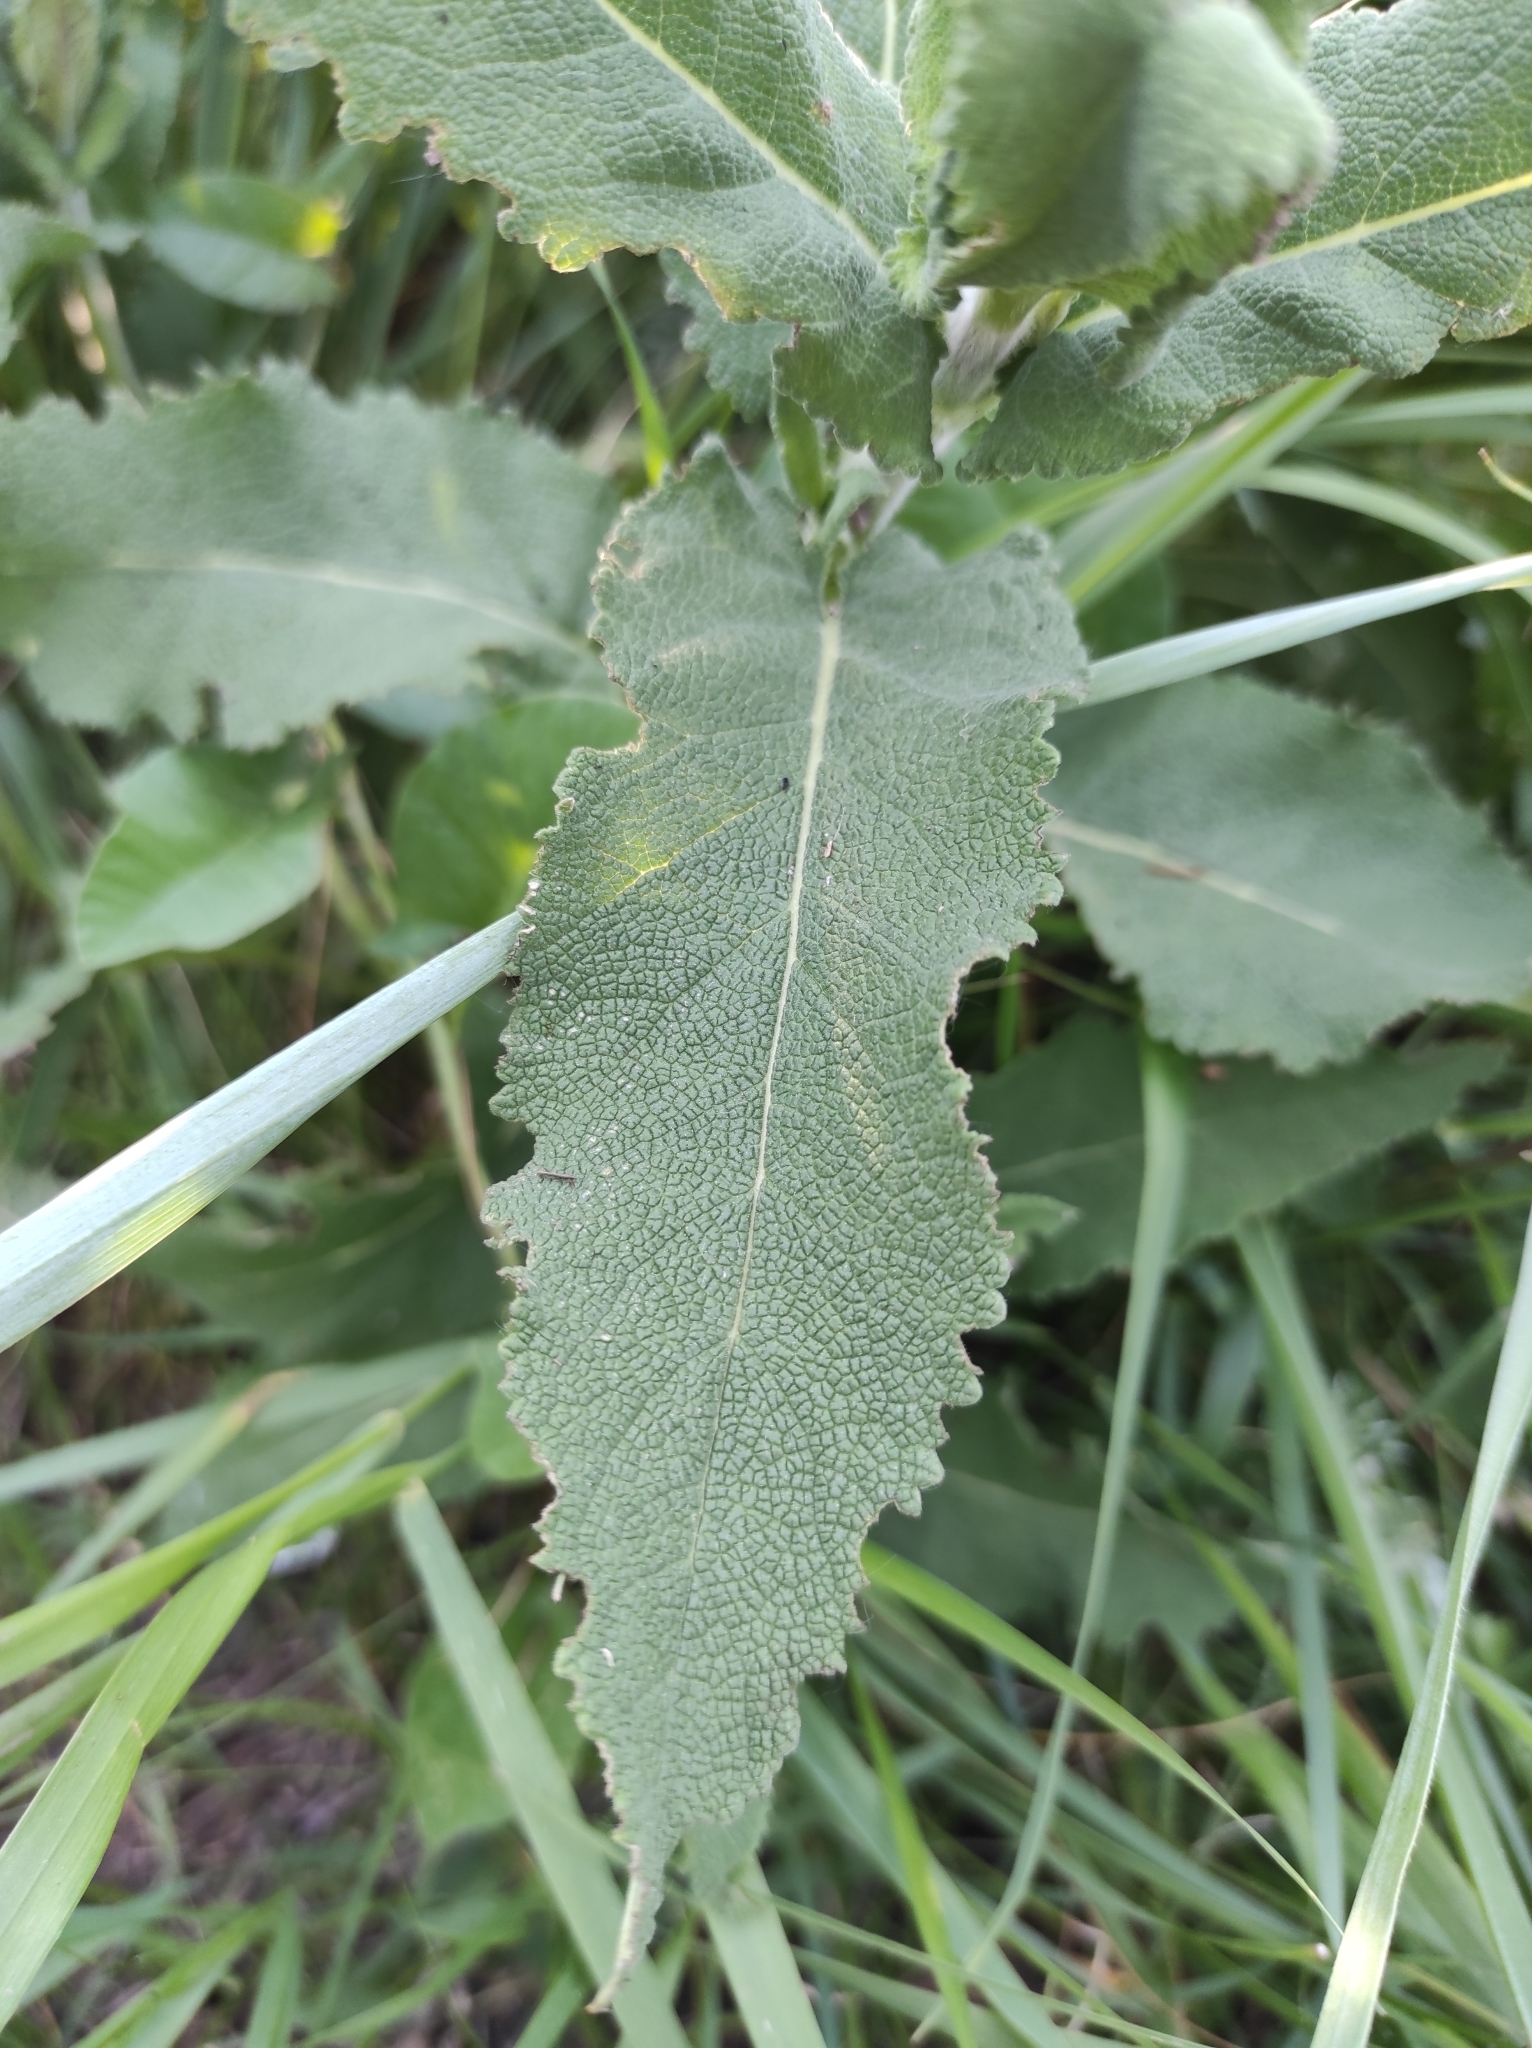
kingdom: Plantae
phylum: Tracheophyta
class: Magnoliopsida
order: Lamiales
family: Lamiaceae
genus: Salvia
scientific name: Salvia nemorosa
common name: Balkan clary
